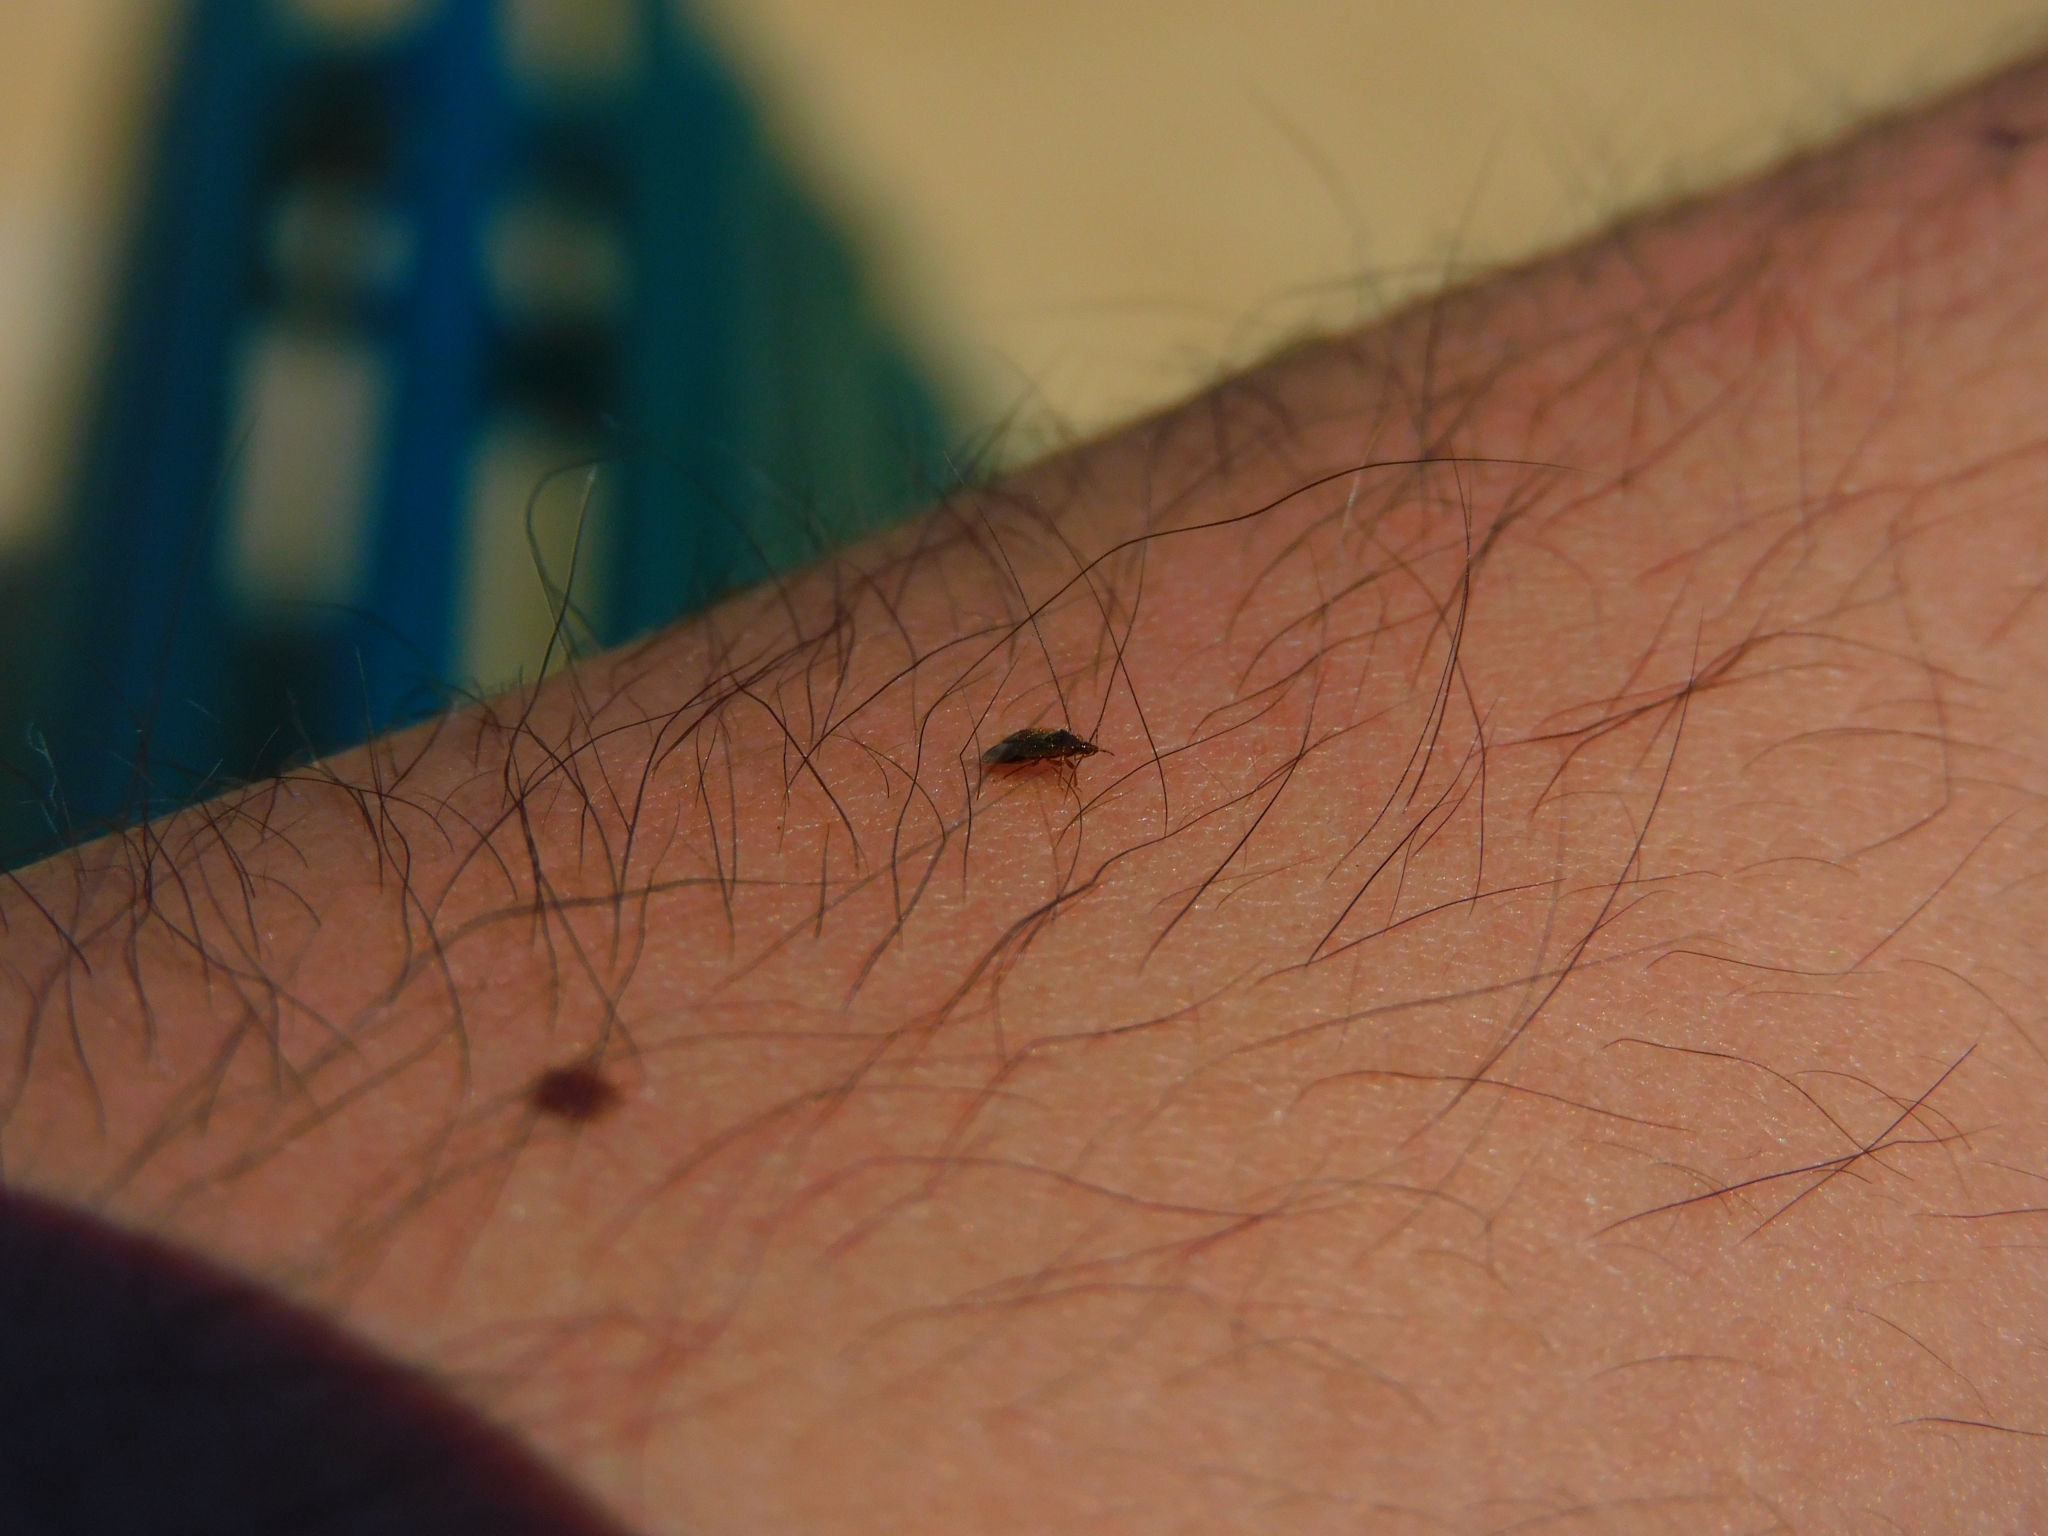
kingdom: Animalia
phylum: Arthropoda
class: Insecta
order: Hemiptera
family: Anthocoridae
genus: Orius
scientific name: Orius
